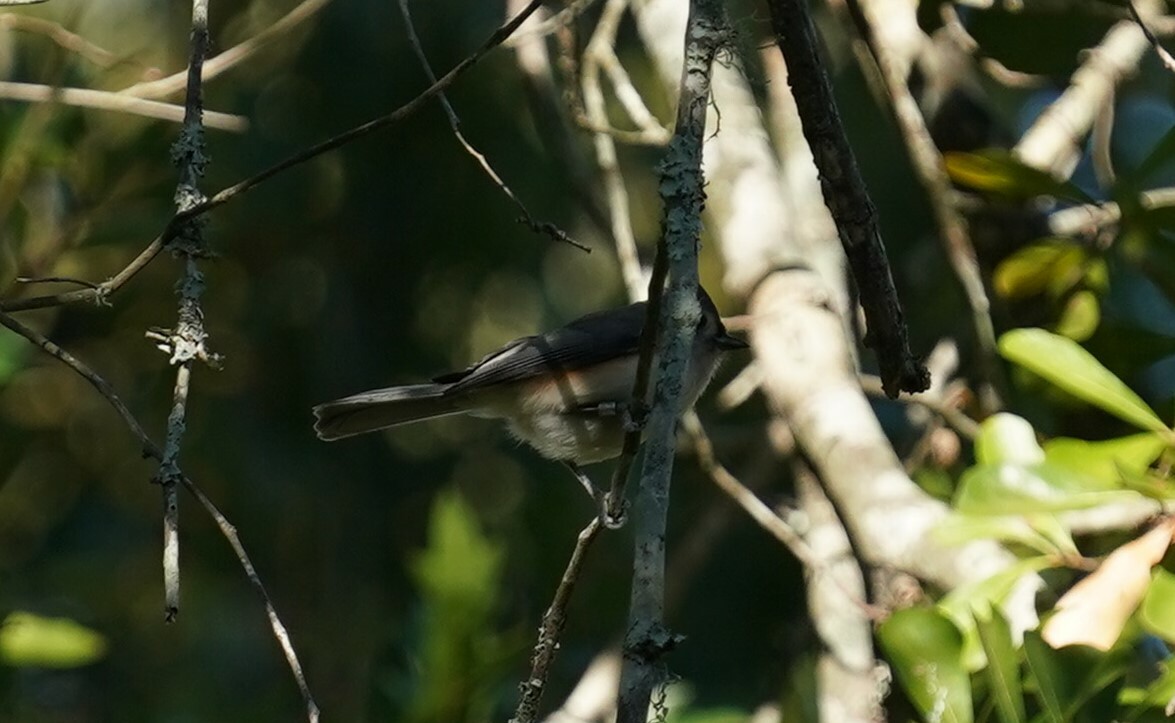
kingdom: Animalia
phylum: Chordata
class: Aves
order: Passeriformes
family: Paridae
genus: Baeolophus
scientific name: Baeolophus bicolor
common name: Tufted titmouse
